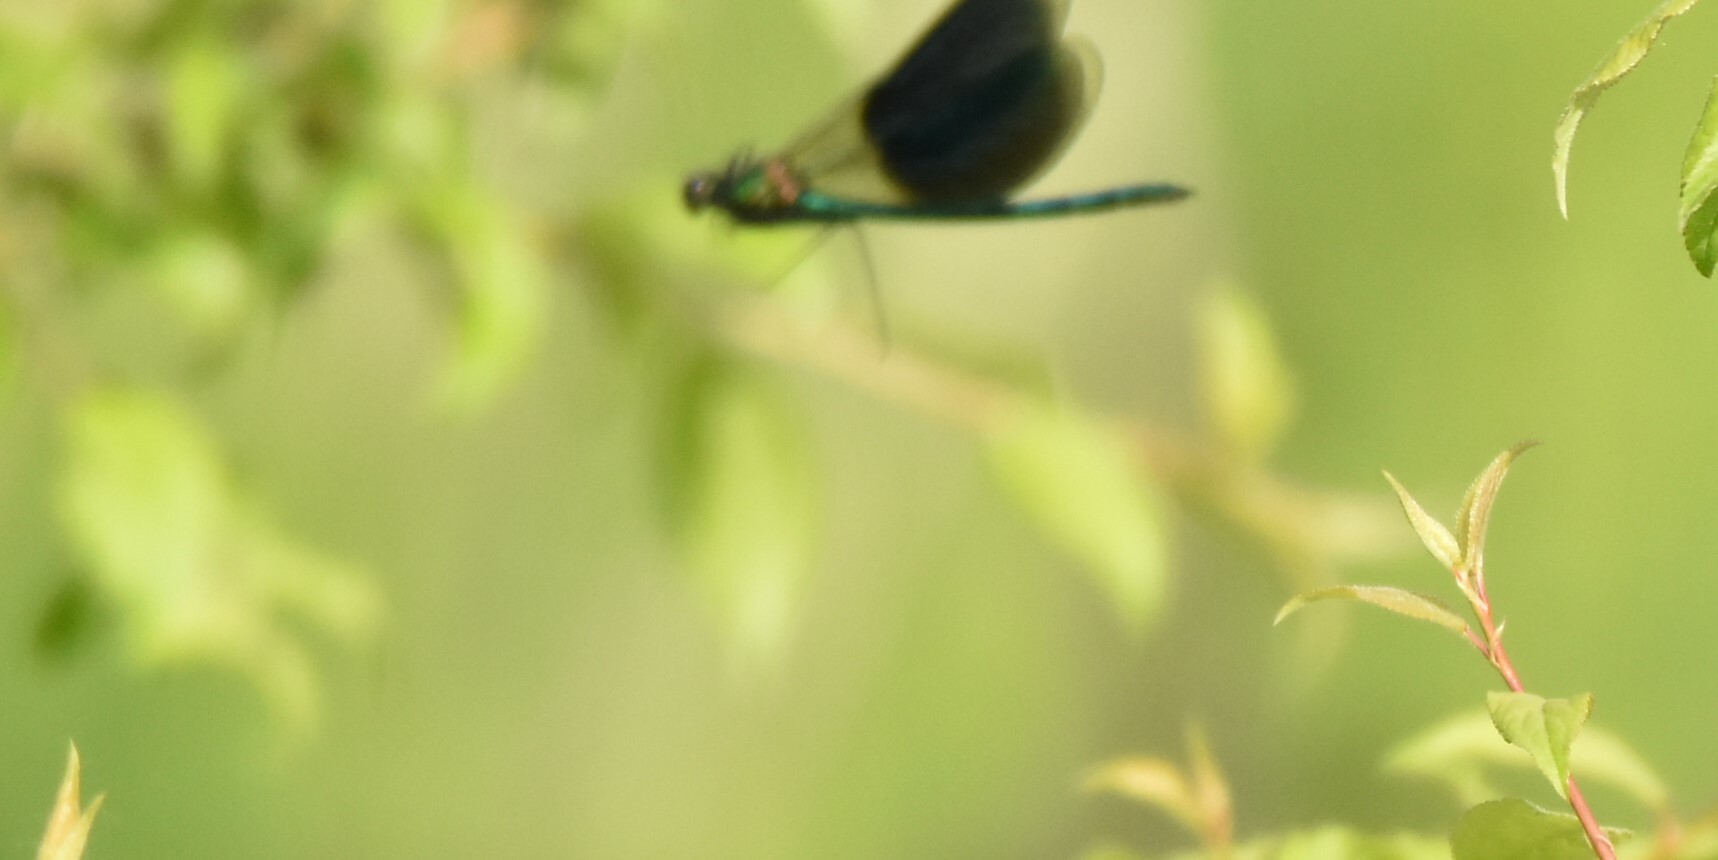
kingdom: Animalia
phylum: Arthropoda
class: Insecta
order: Odonata
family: Calopterygidae
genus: Calopteryx
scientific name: Calopteryx splendens
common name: Banded demoiselle
